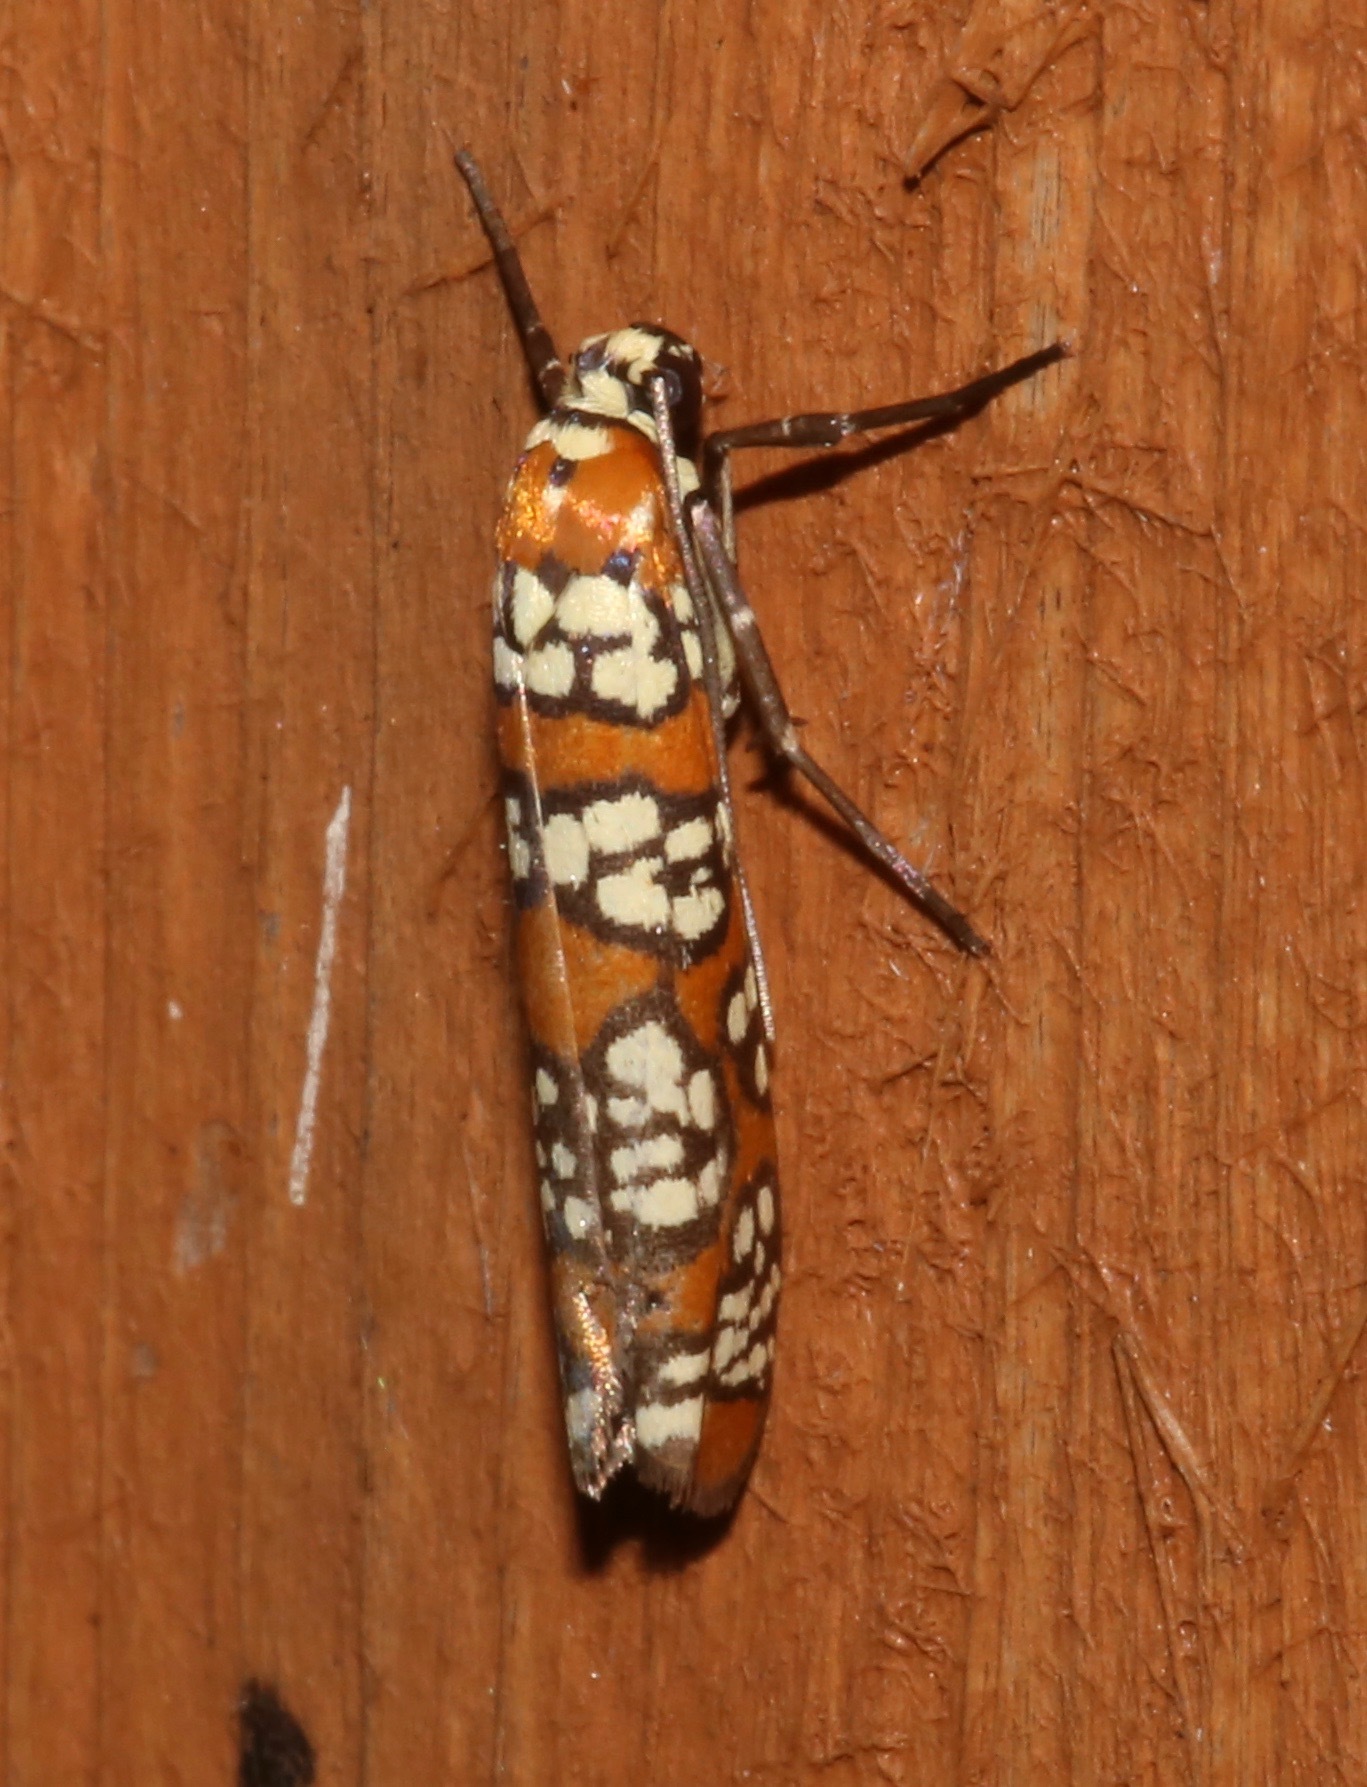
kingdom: Animalia
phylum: Arthropoda
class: Insecta
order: Lepidoptera
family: Attevidae
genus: Atteva
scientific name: Atteva punctella
